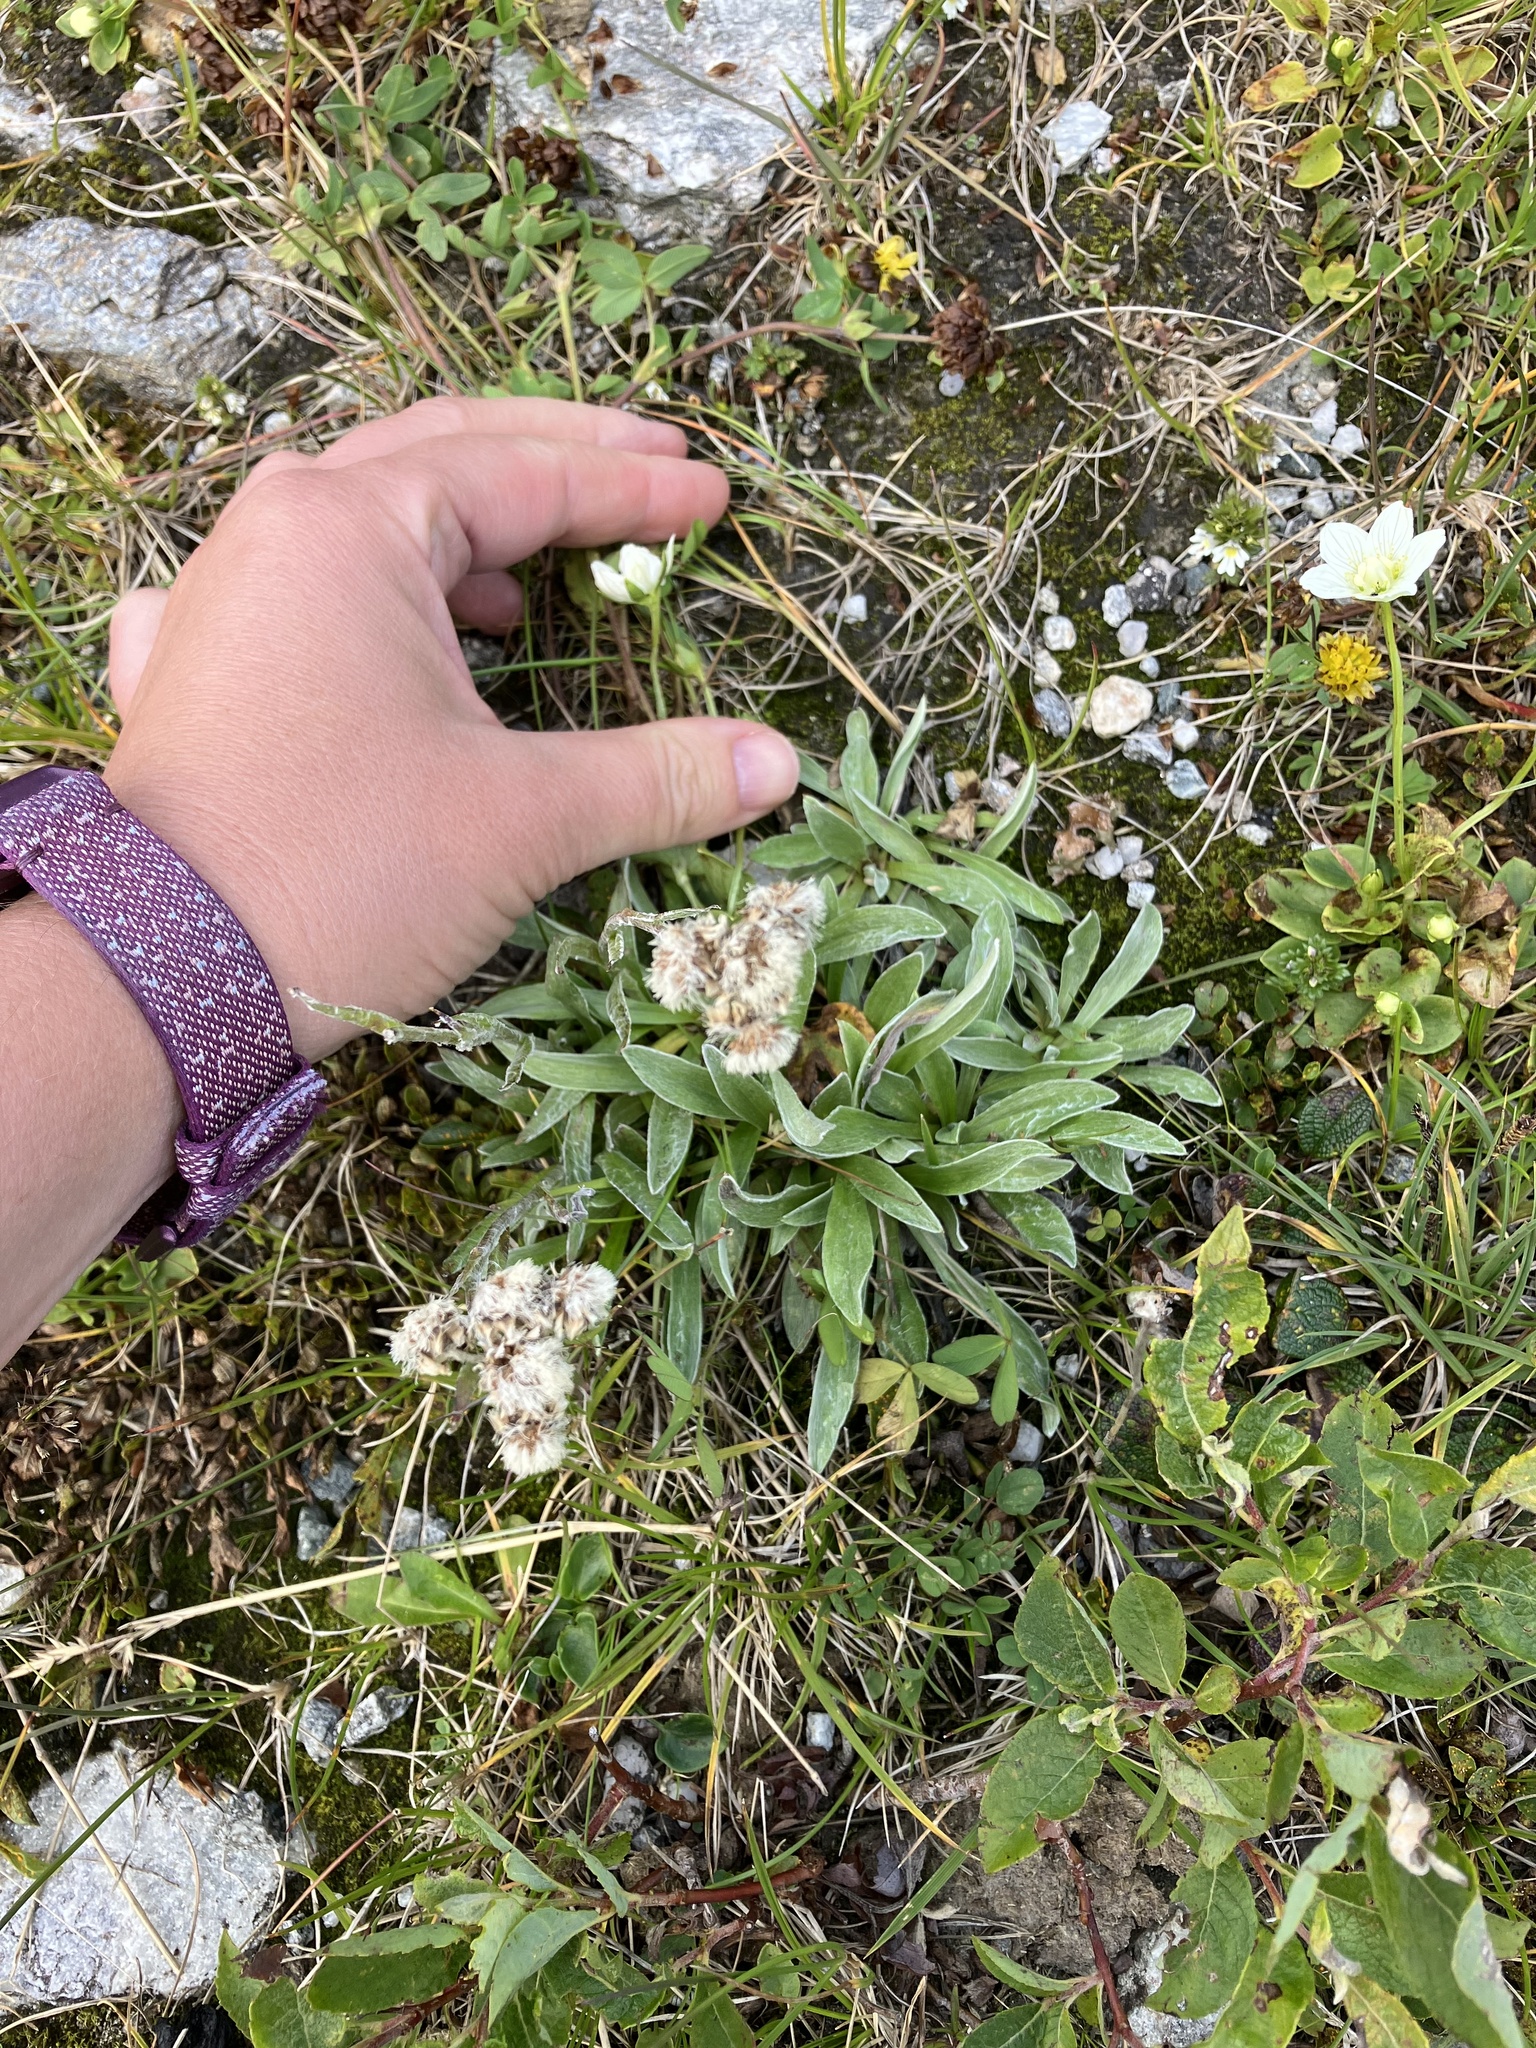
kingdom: Plantae
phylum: Tracheophyta
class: Magnoliopsida
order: Asterales
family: Asteraceae
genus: Antennaria
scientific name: Antennaria carpatica
